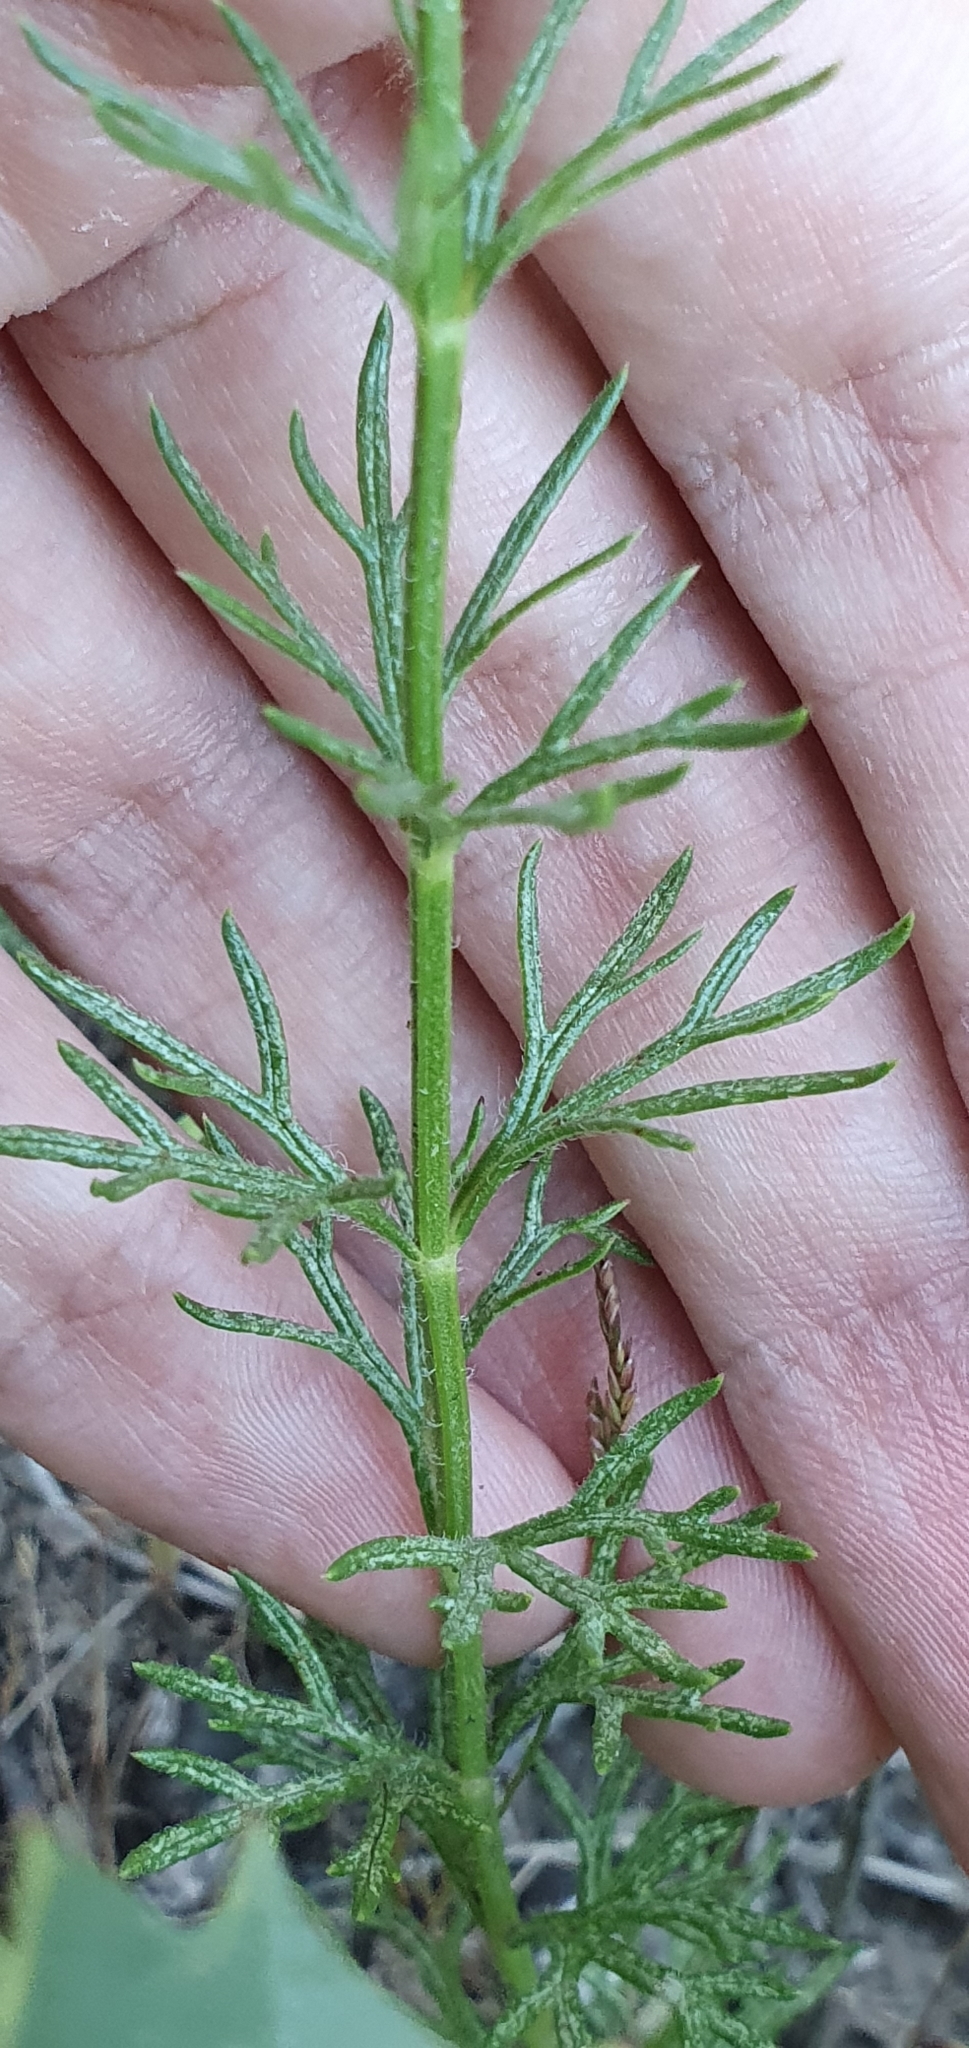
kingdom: Plantae
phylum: Tracheophyta
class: Magnoliopsida
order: Lamiales
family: Lamiaceae
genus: Teucrium
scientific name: Teucrium pseudochamaepitys
